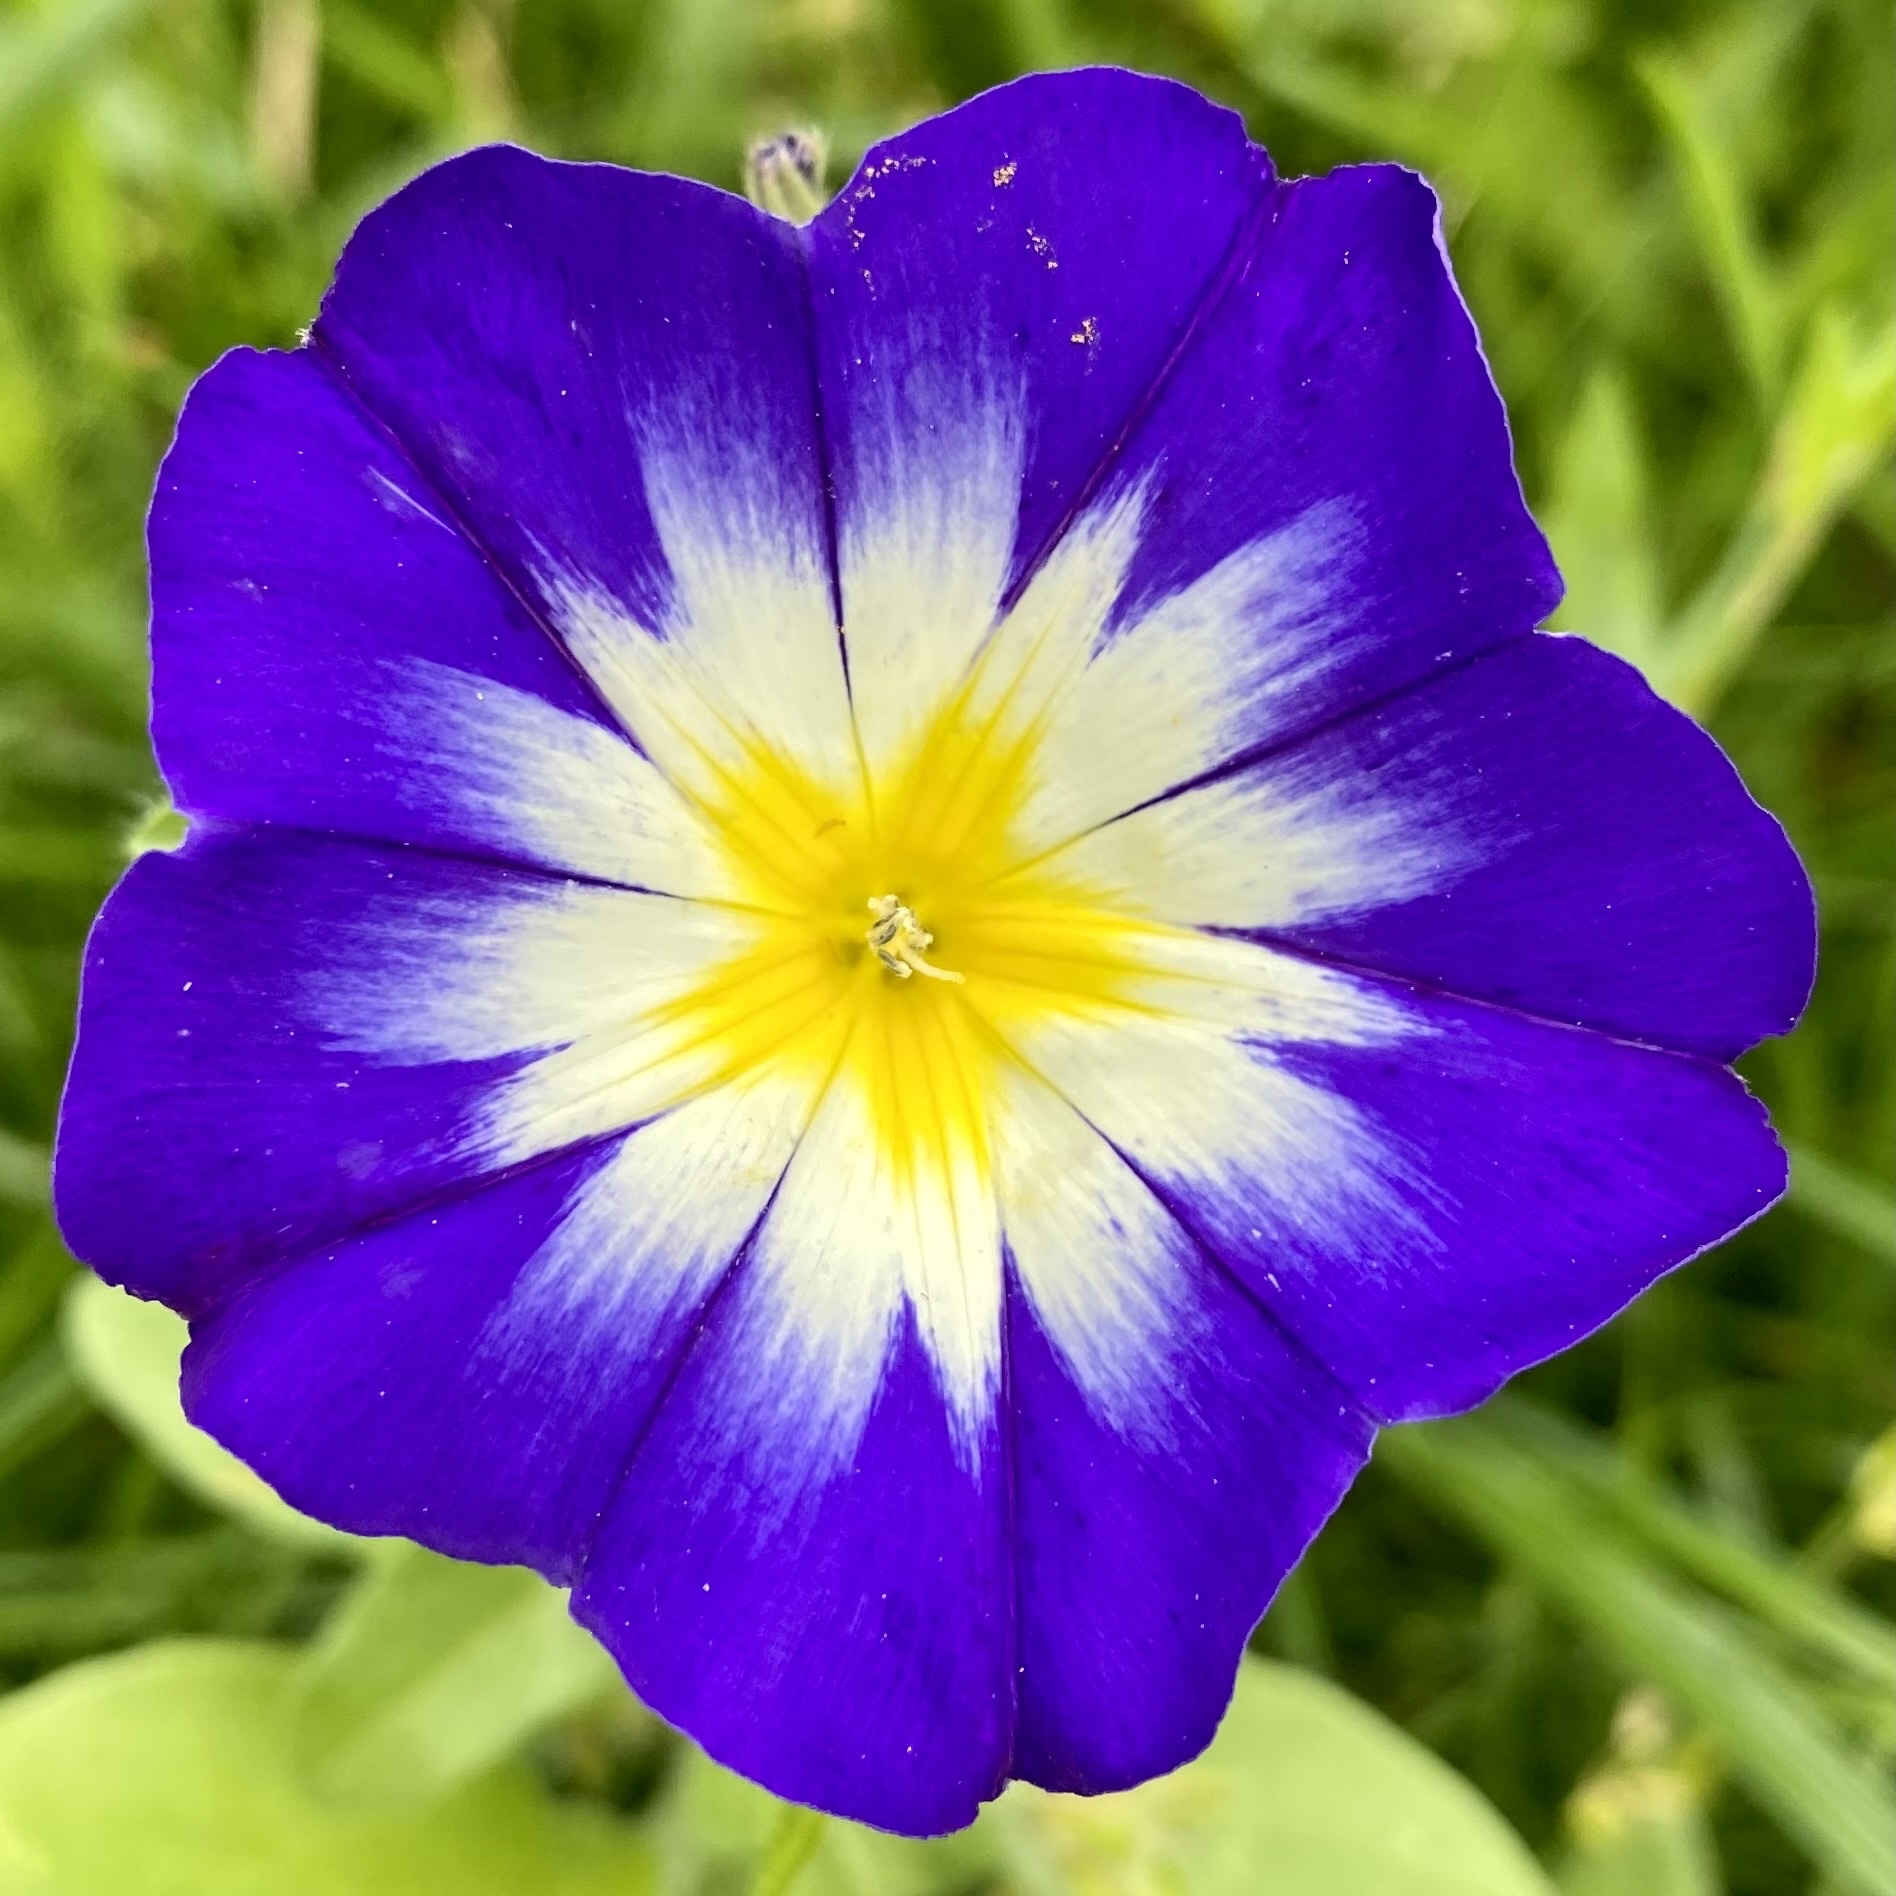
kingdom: Plantae
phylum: Tracheophyta
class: Magnoliopsida
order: Solanales
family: Convolvulaceae
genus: Convolvulus
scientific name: Convolvulus tricolor
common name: Dwarf morning-glory
